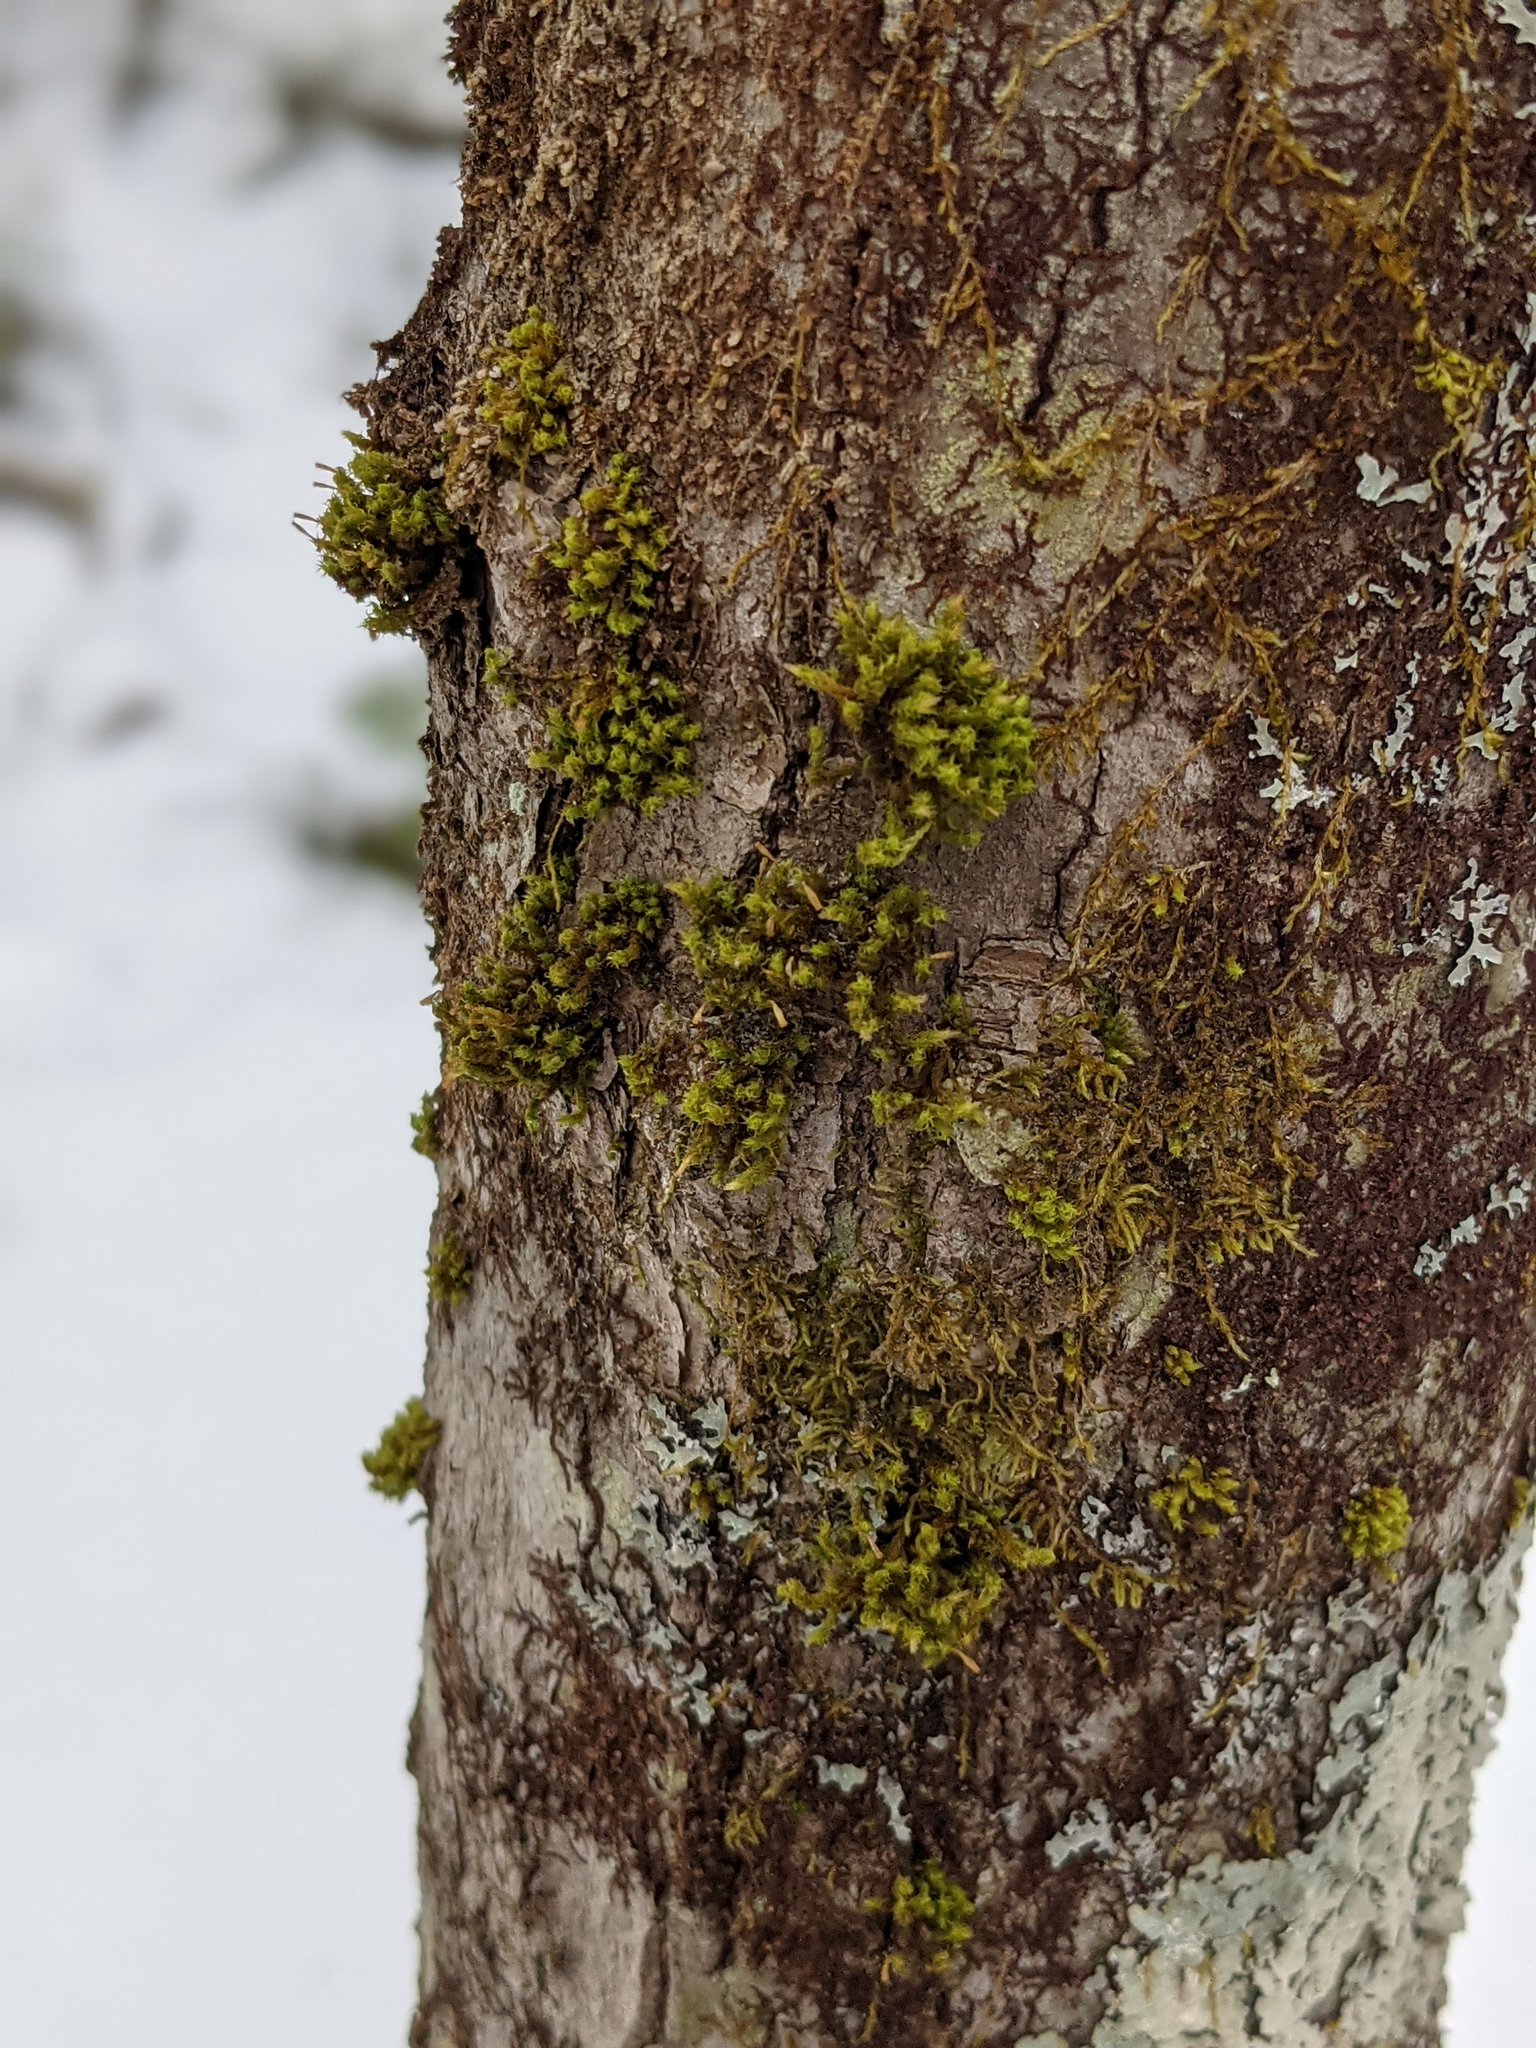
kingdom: Plantae
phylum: Bryophyta
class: Bryopsida
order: Orthotrichales
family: Orthotrichaceae
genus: Ulota
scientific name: Ulota crispa
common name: Crisped pincushion moss
